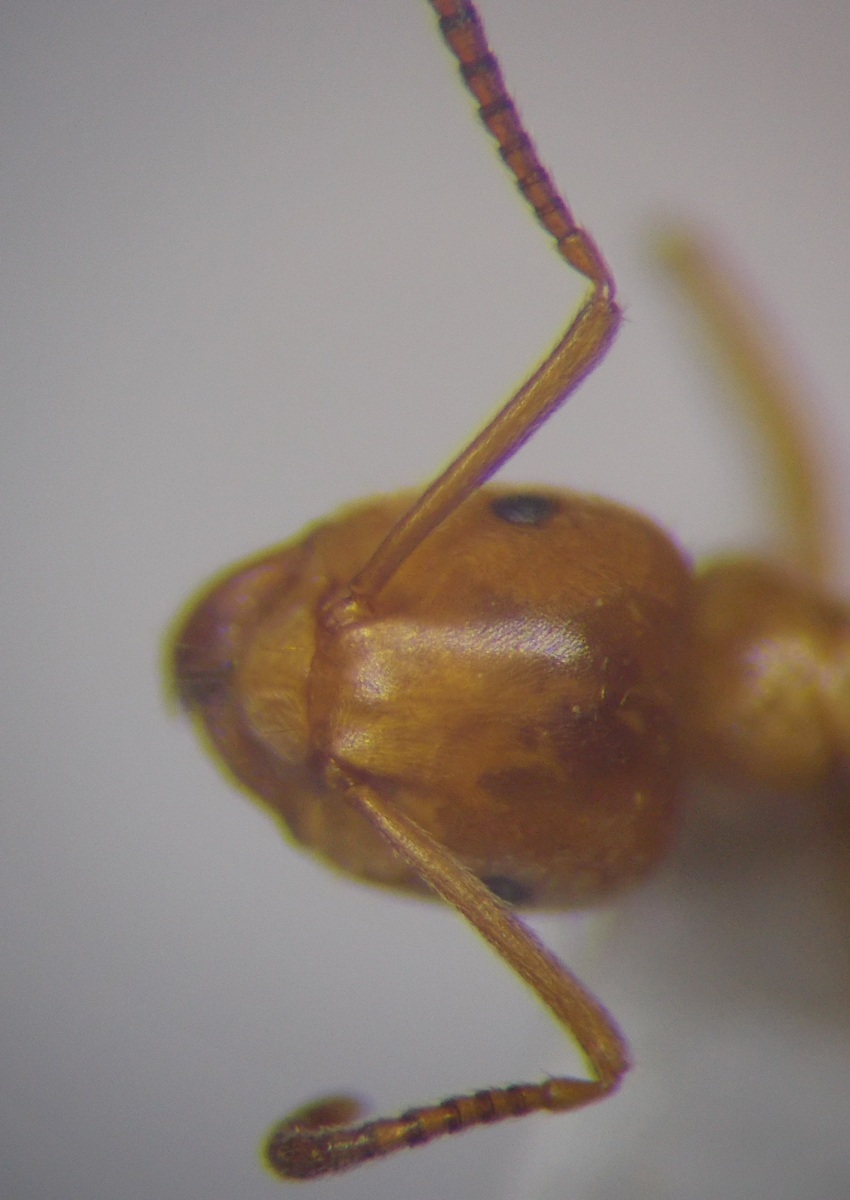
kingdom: Animalia
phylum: Arthropoda
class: Insecta
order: Hymenoptera
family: Formicidae
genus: Lasius
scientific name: Lasius umbratus
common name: Yellow shadow ant
